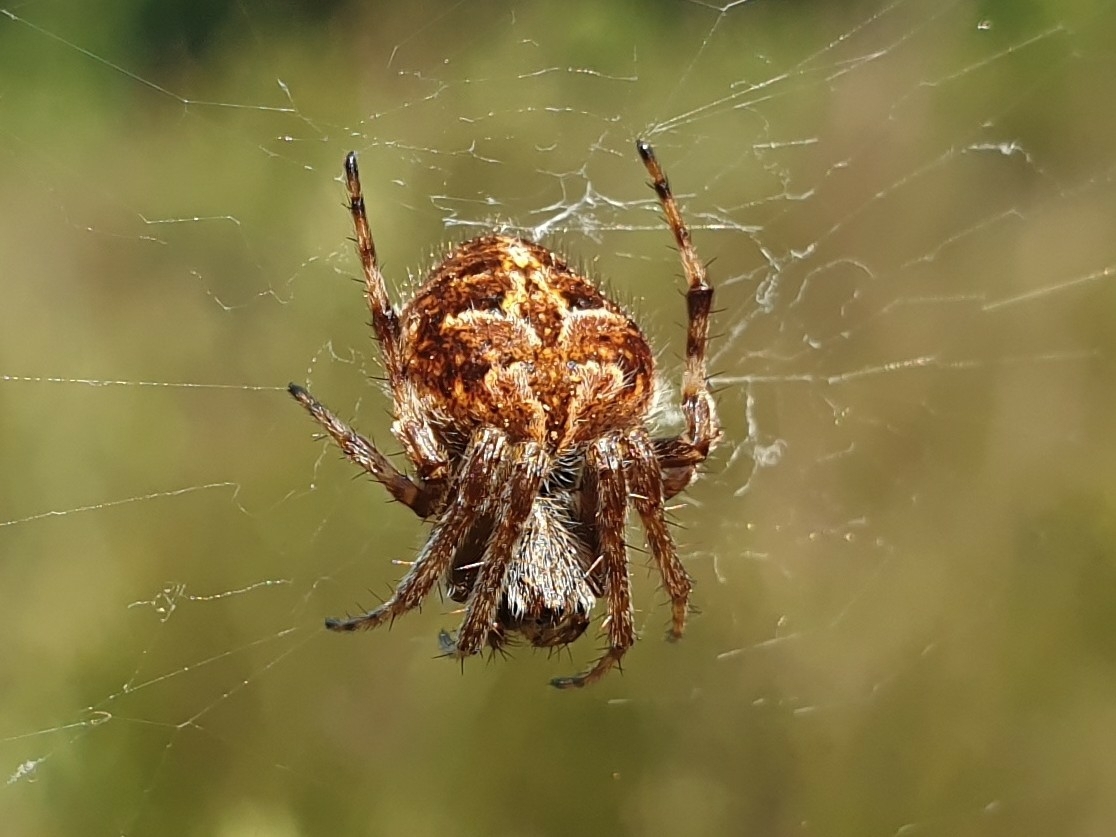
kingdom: Animalia
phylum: Arthropoda
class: Arachnida
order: Araneae
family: Araneidae
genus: Agalenatea
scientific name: Agalenatea redii
